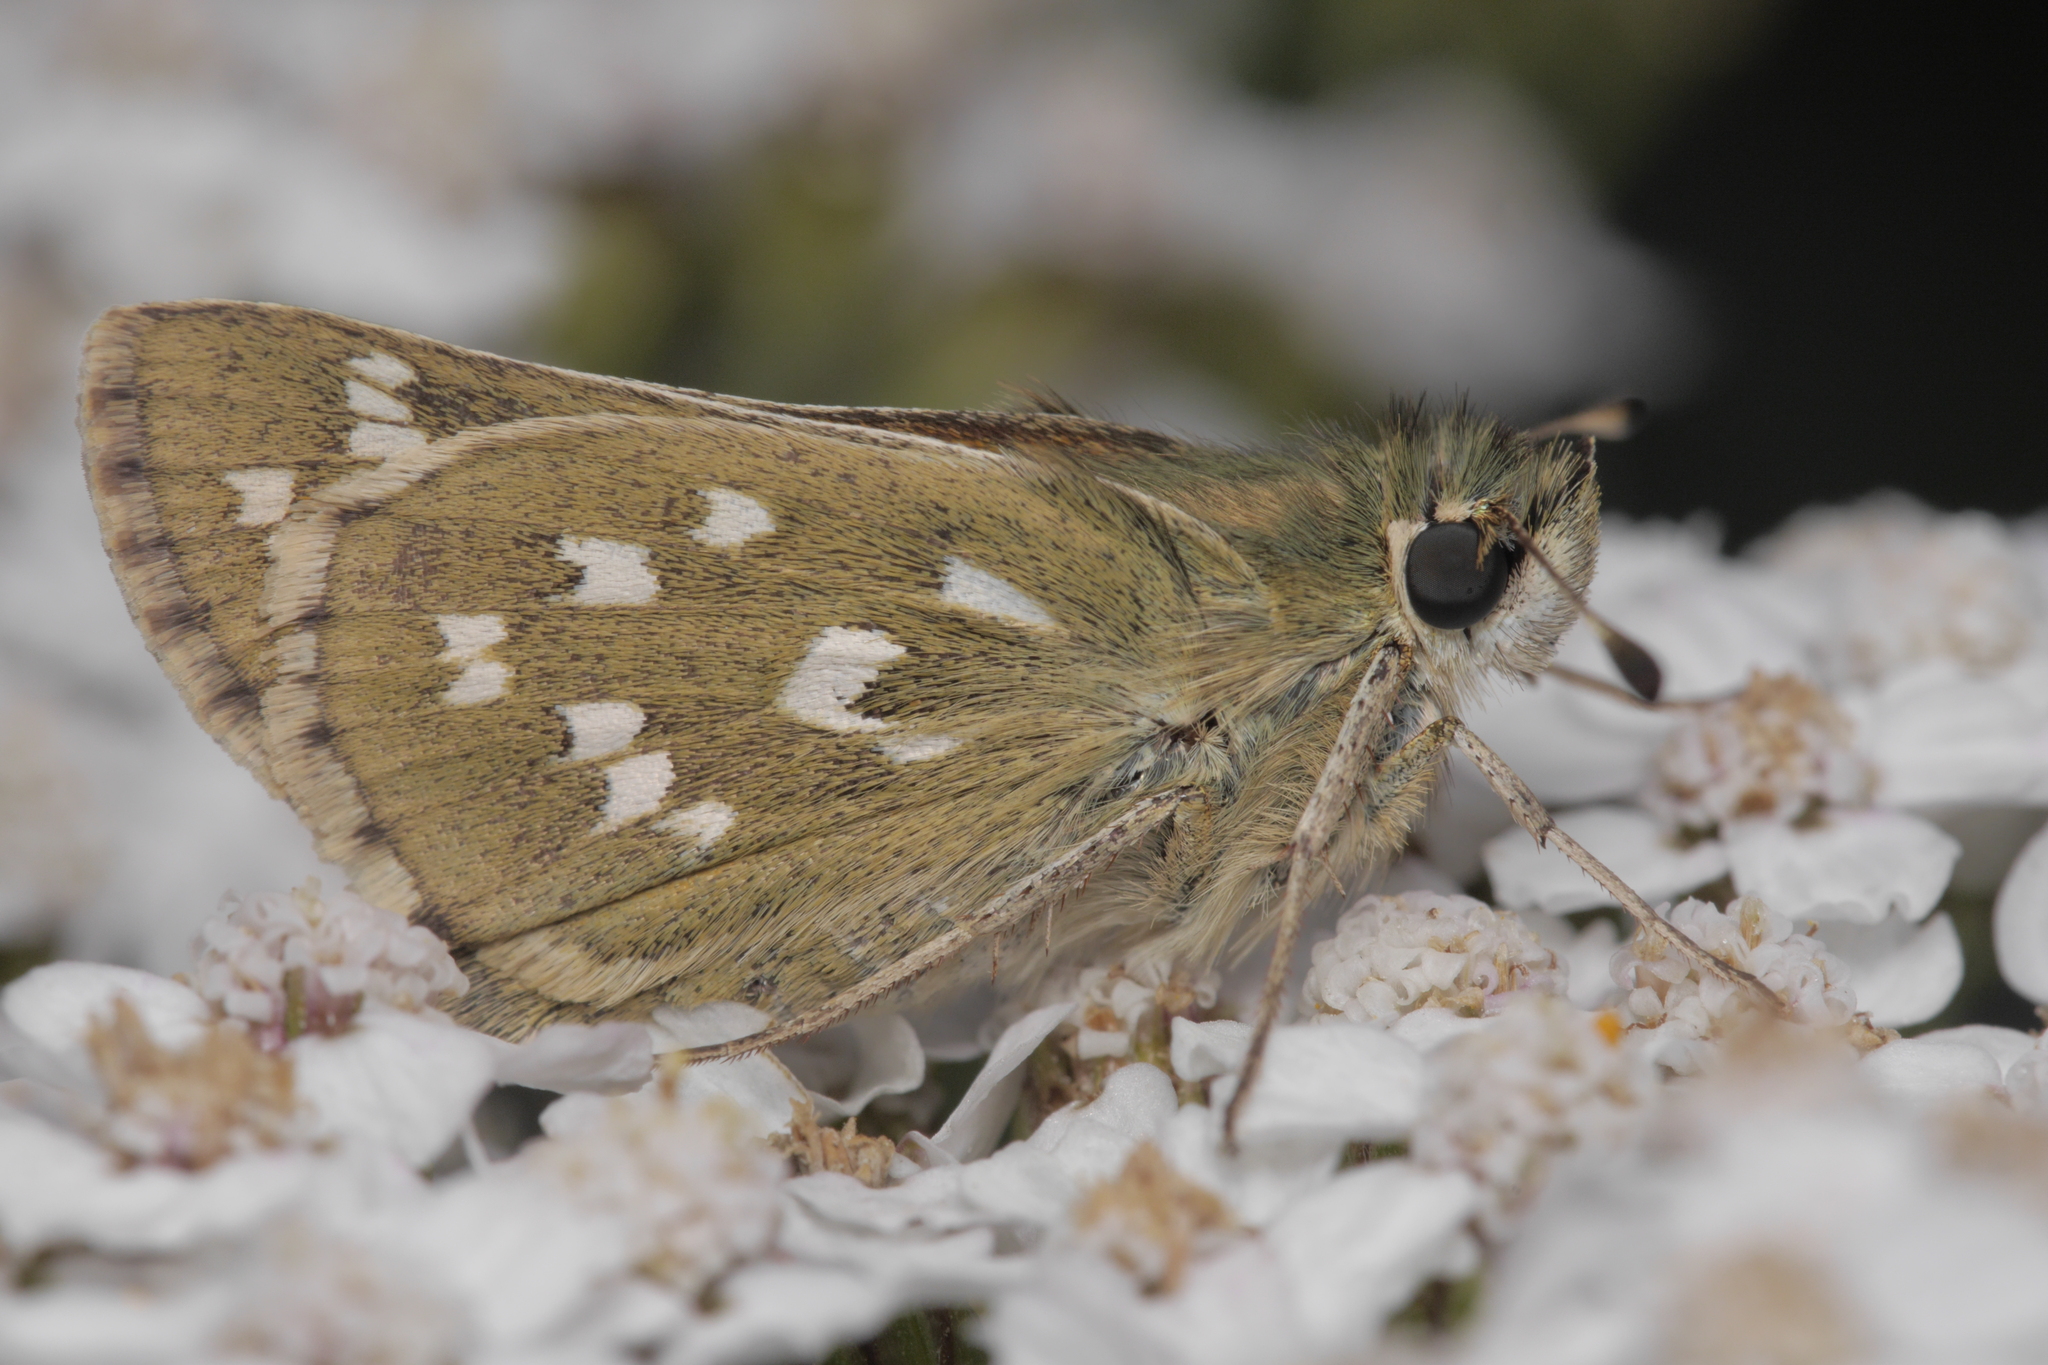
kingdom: Animalia
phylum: Arthropoda
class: Insecta
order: Lepidoptera
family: Hesperiidae
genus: Hesperia
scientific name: Hesperia comma
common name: Common branded skipper
